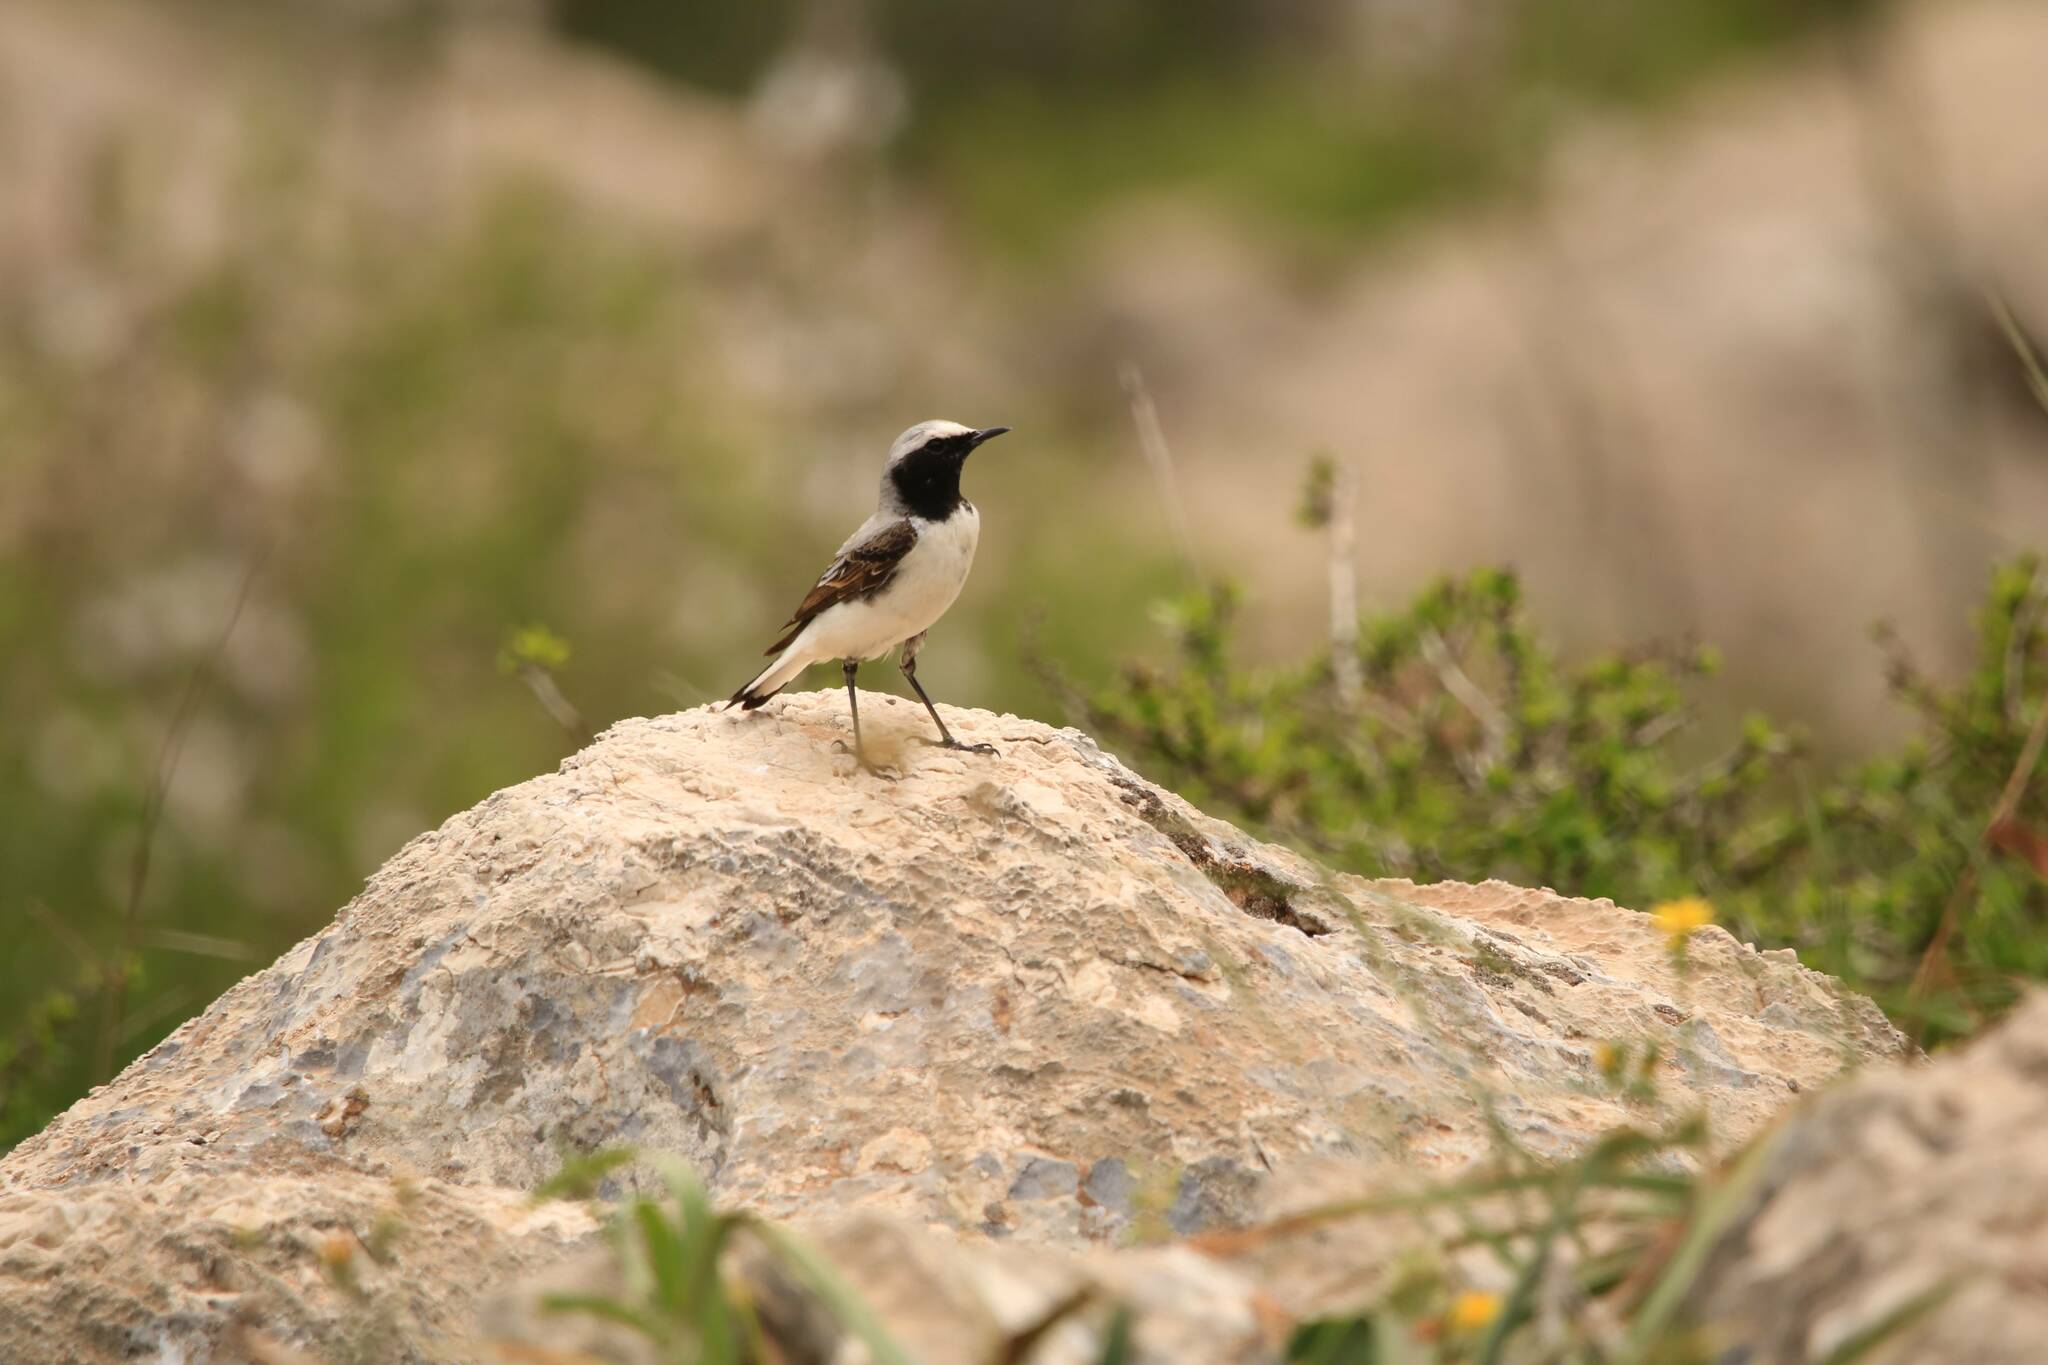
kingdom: Animalia
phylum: Chordata
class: Aves
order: Passeriformes
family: Muscicapidae
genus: Oenanthe
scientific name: Oenanthe oenanthe
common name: Northern wheatear
